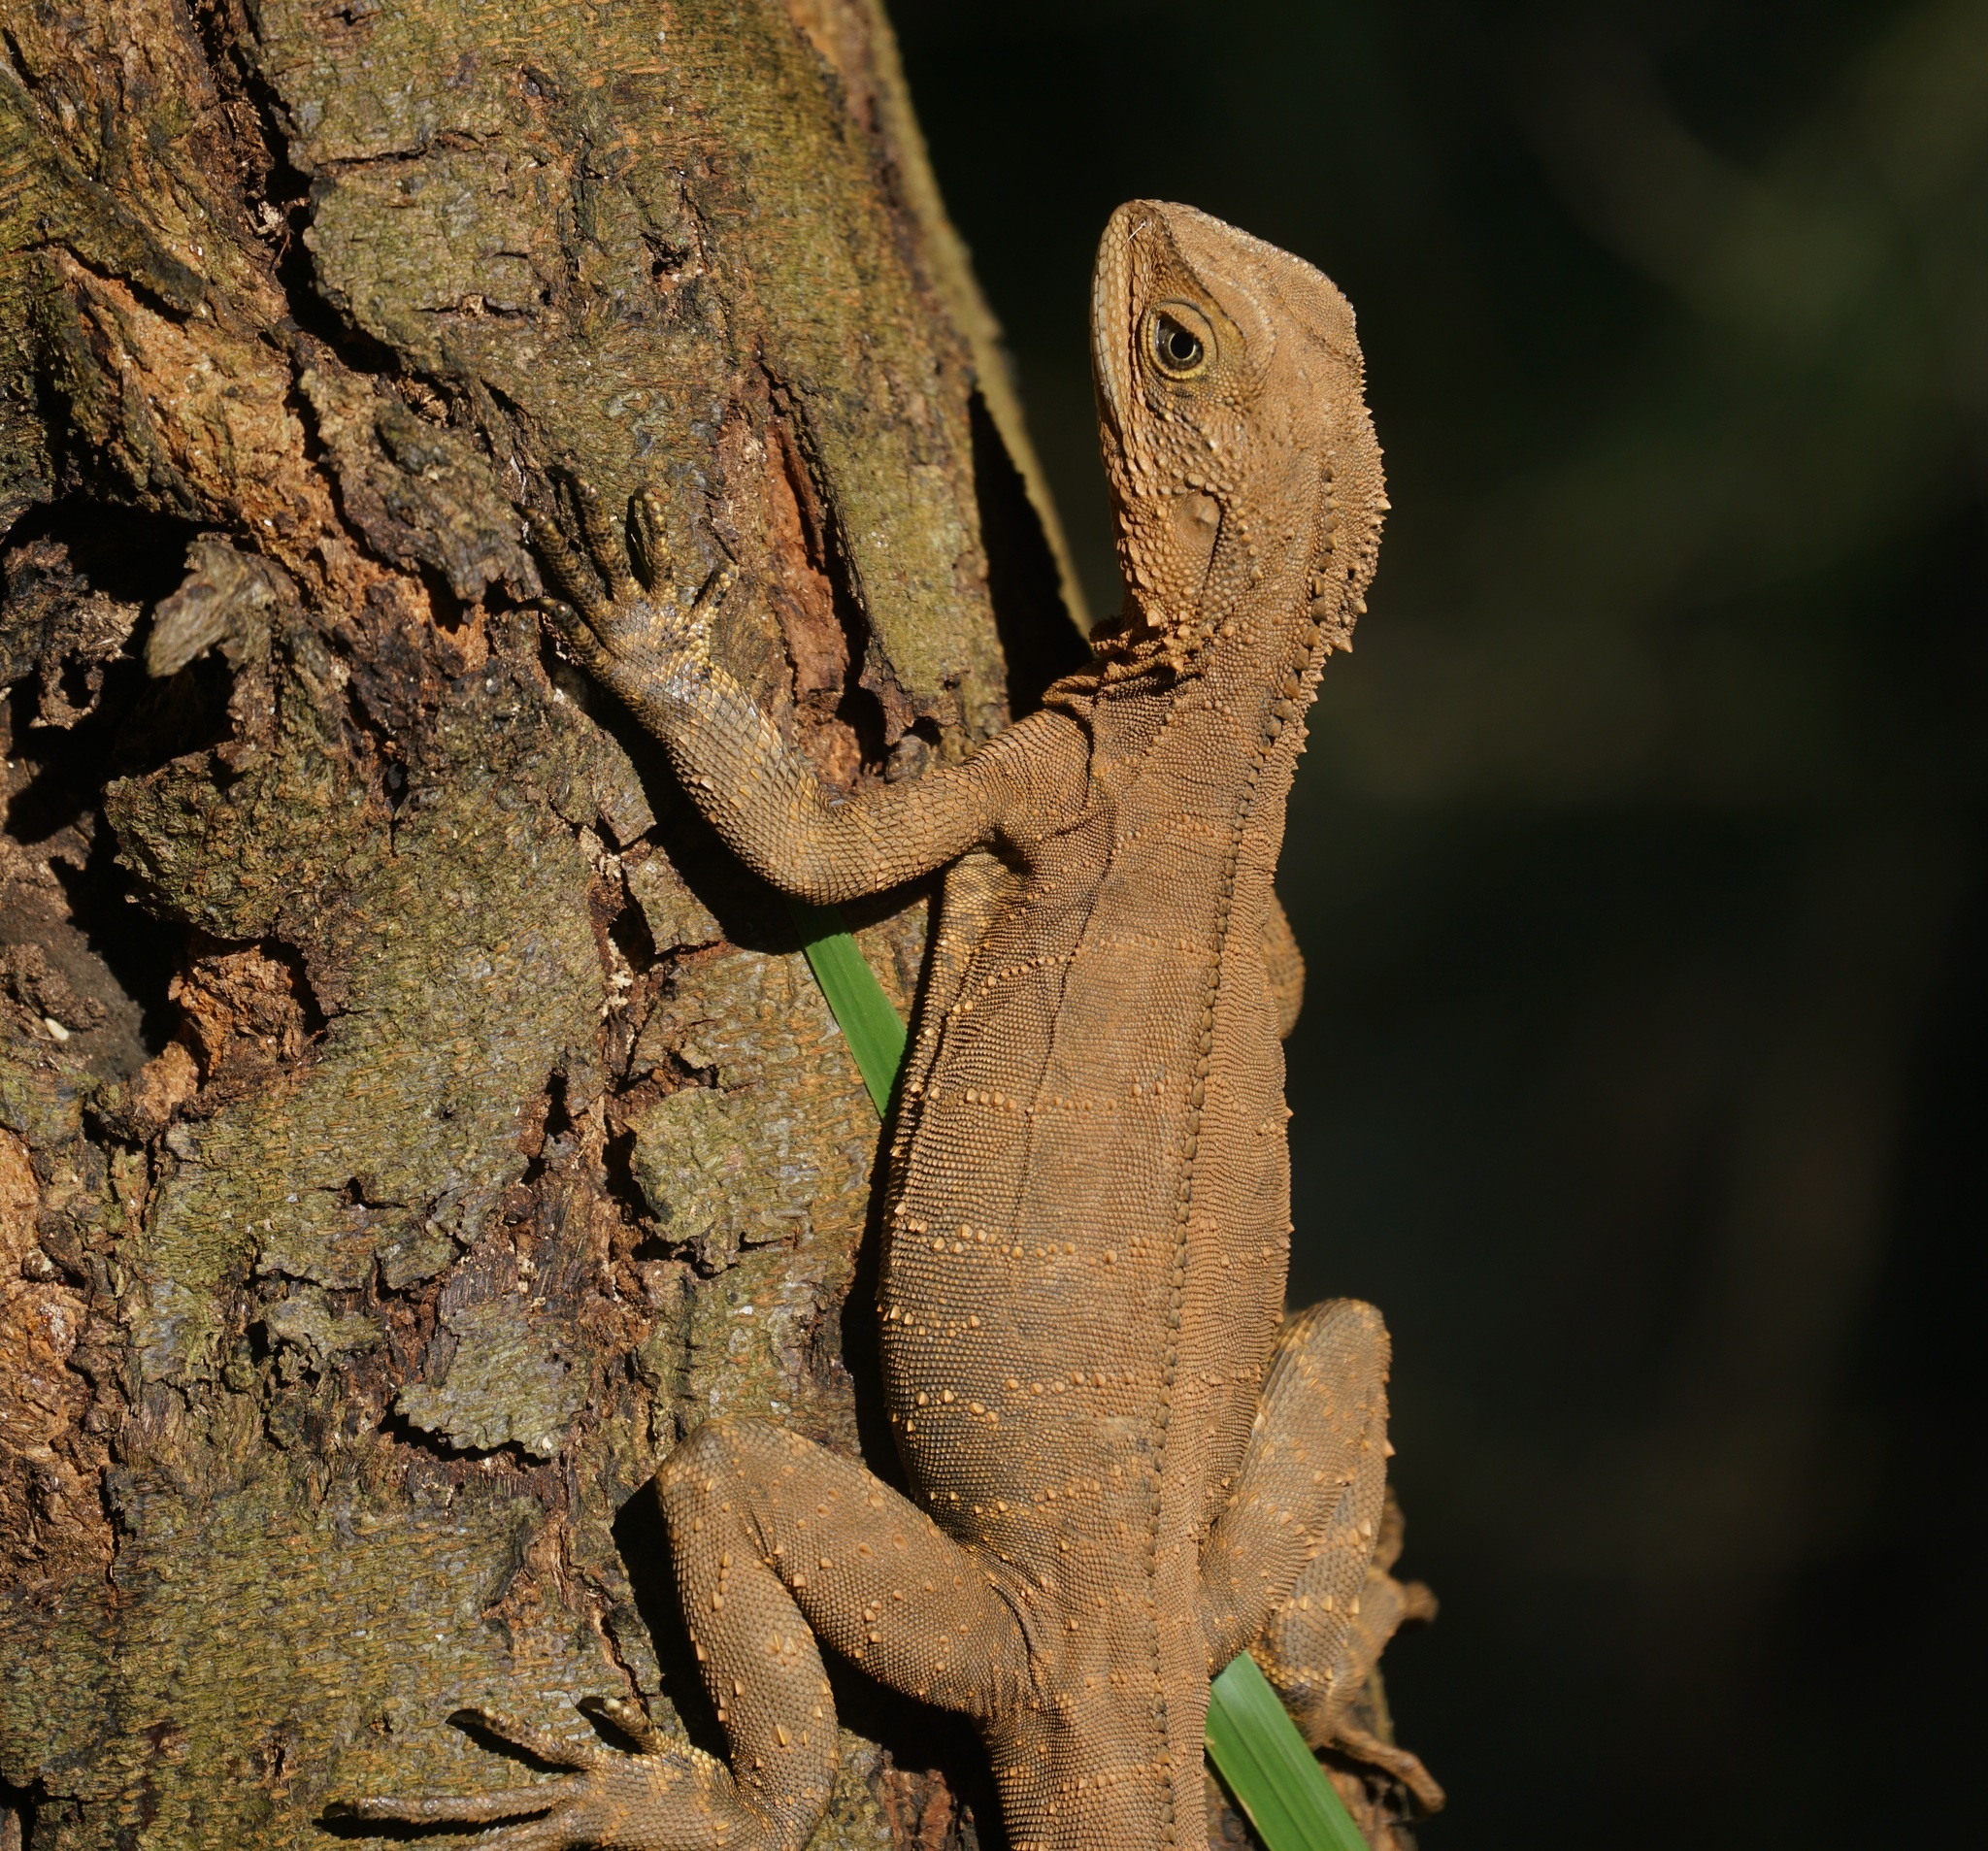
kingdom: Animalia
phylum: Chordata
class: Squamata
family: Agamidae
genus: Intellagama
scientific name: Intellagama lesueurii
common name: Eastern water dragon
